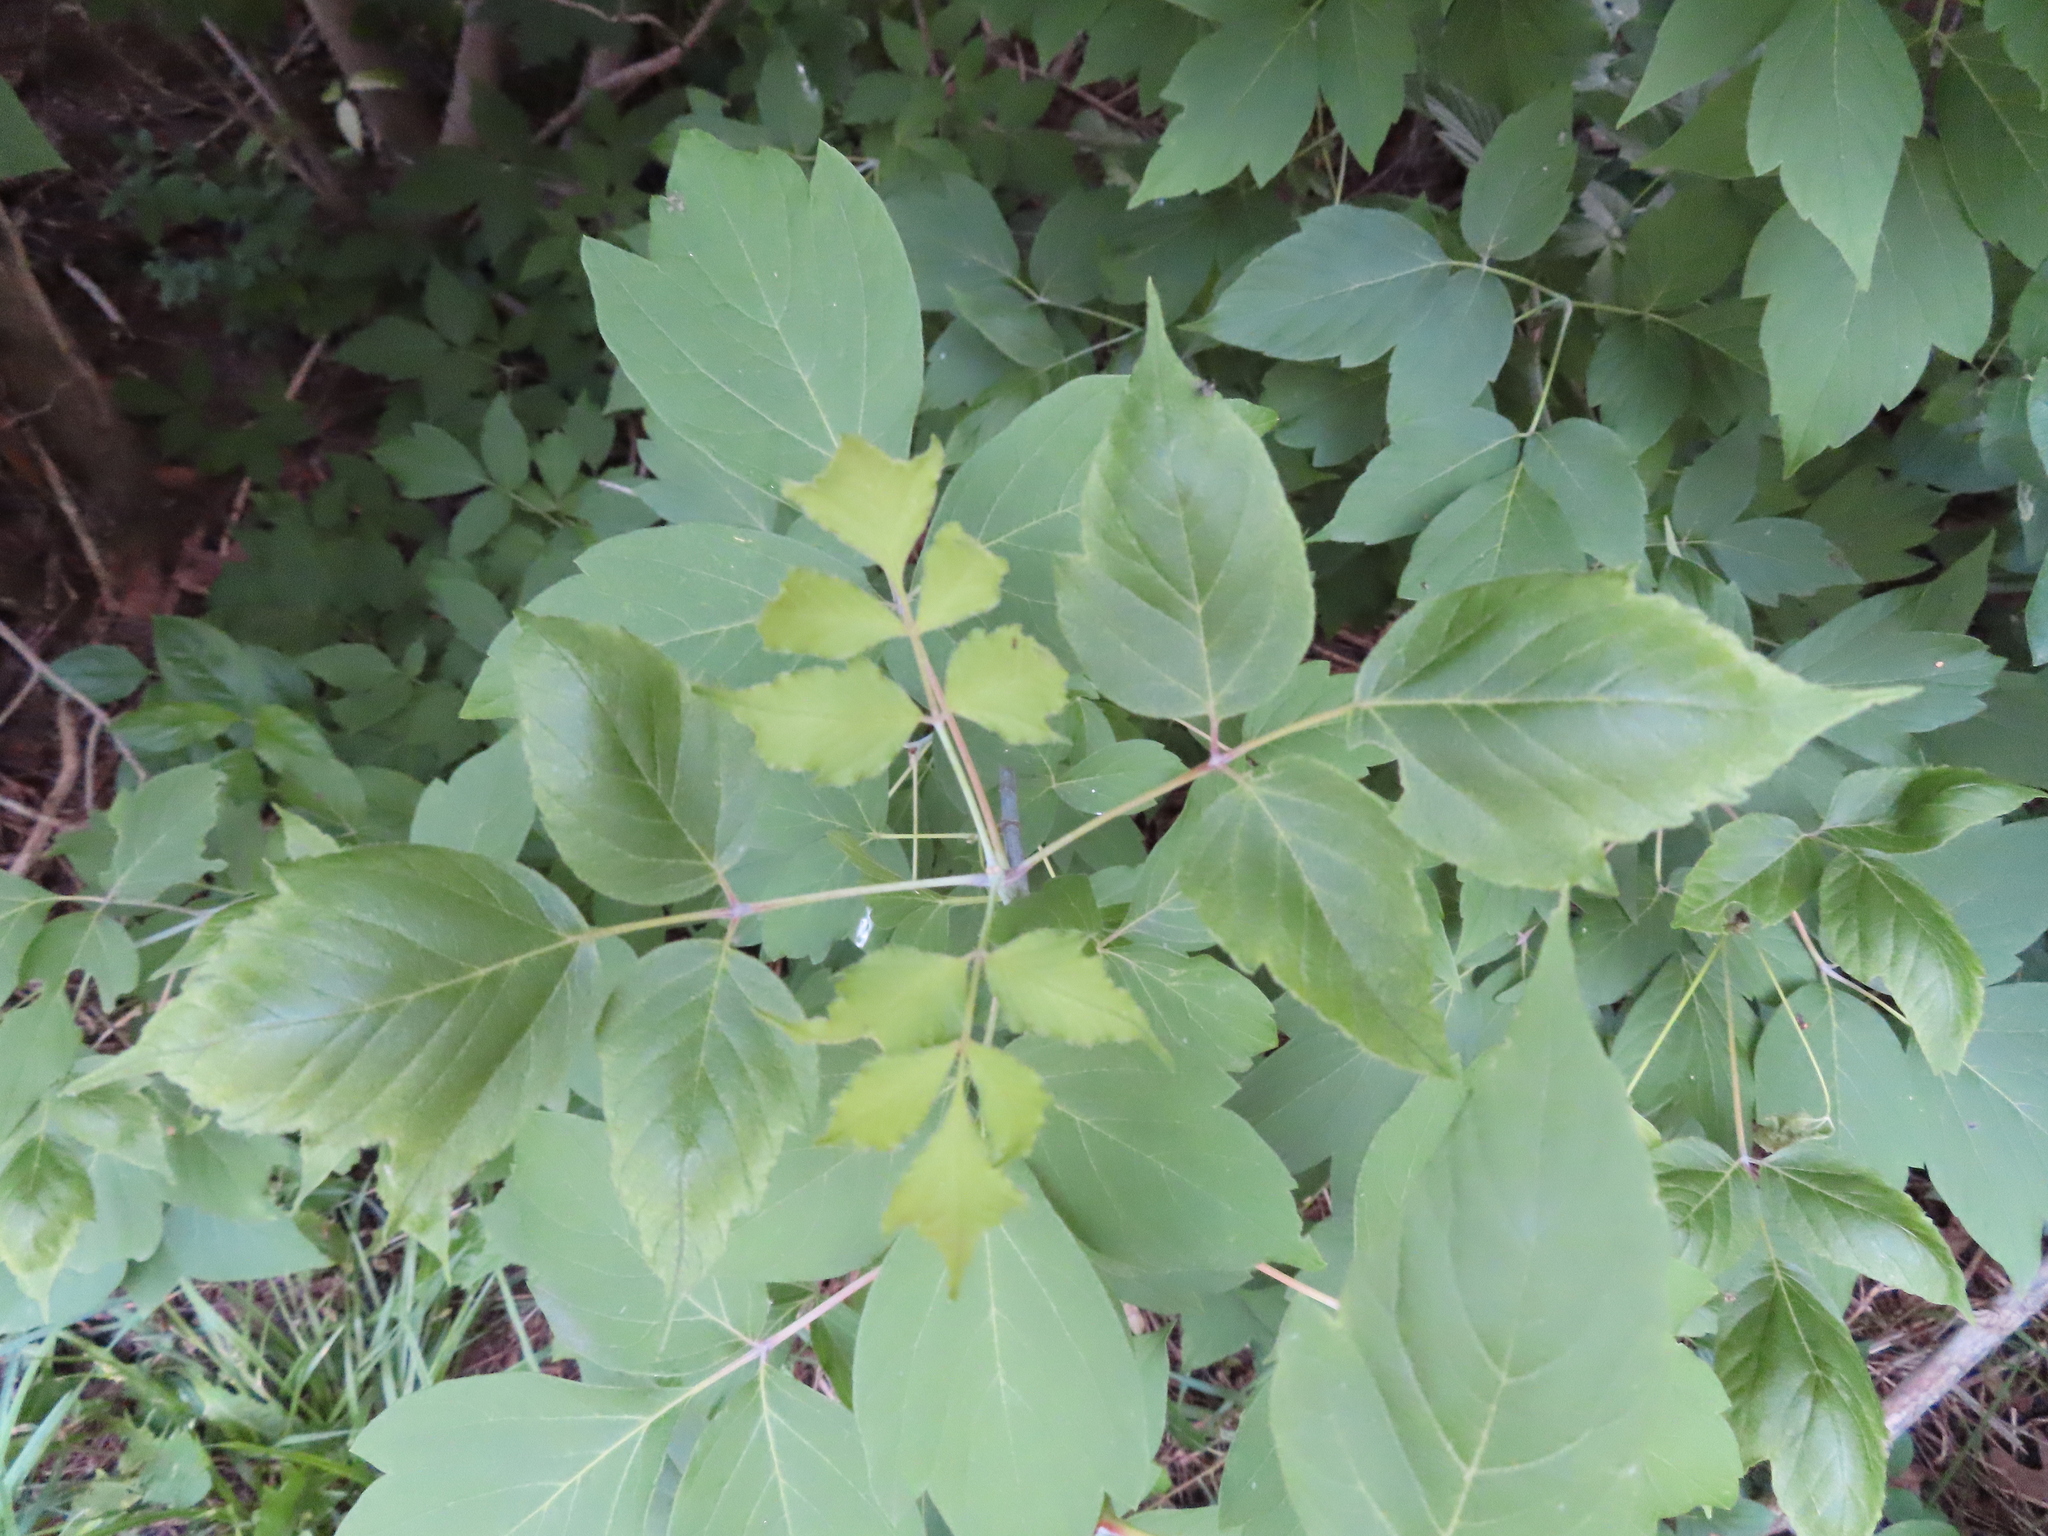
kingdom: Plantae
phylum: Tracheophyta
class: Magnoliopsida
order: Sapindales
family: Sapindaceae
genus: Acer
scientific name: Acer negundo
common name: Ashleaf maple
